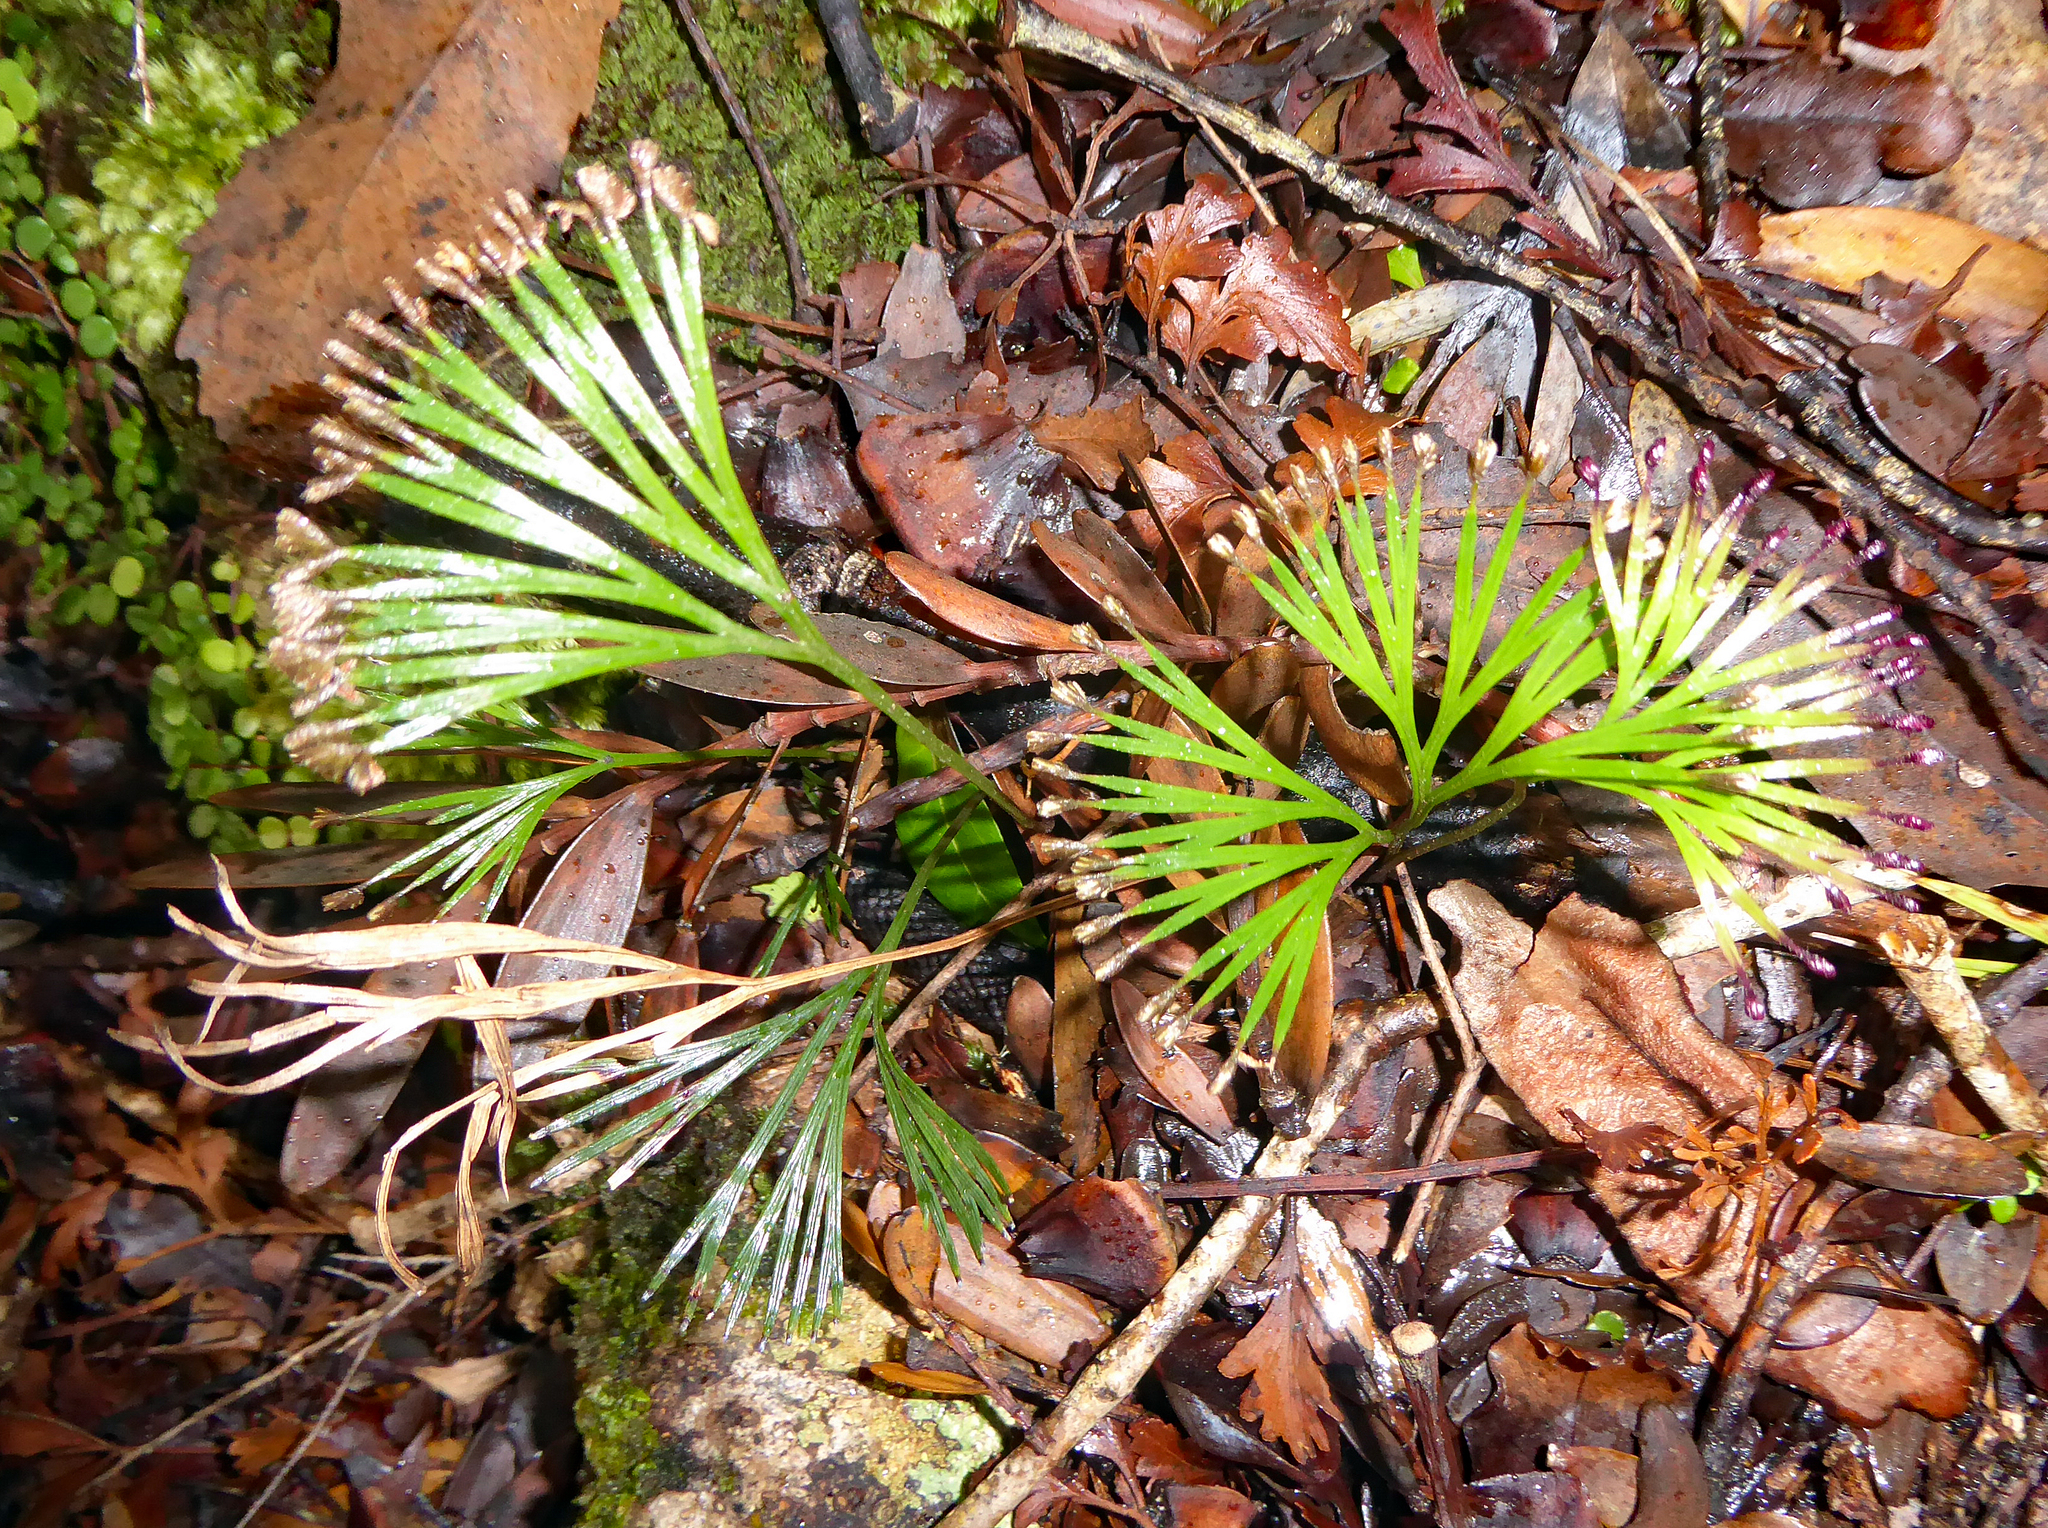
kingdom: Plantae
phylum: Tracheophyta
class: Polypodiopsida
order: Schizaeales
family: Schizaeaceae
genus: Schizaea
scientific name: Schizaea dichotoma
